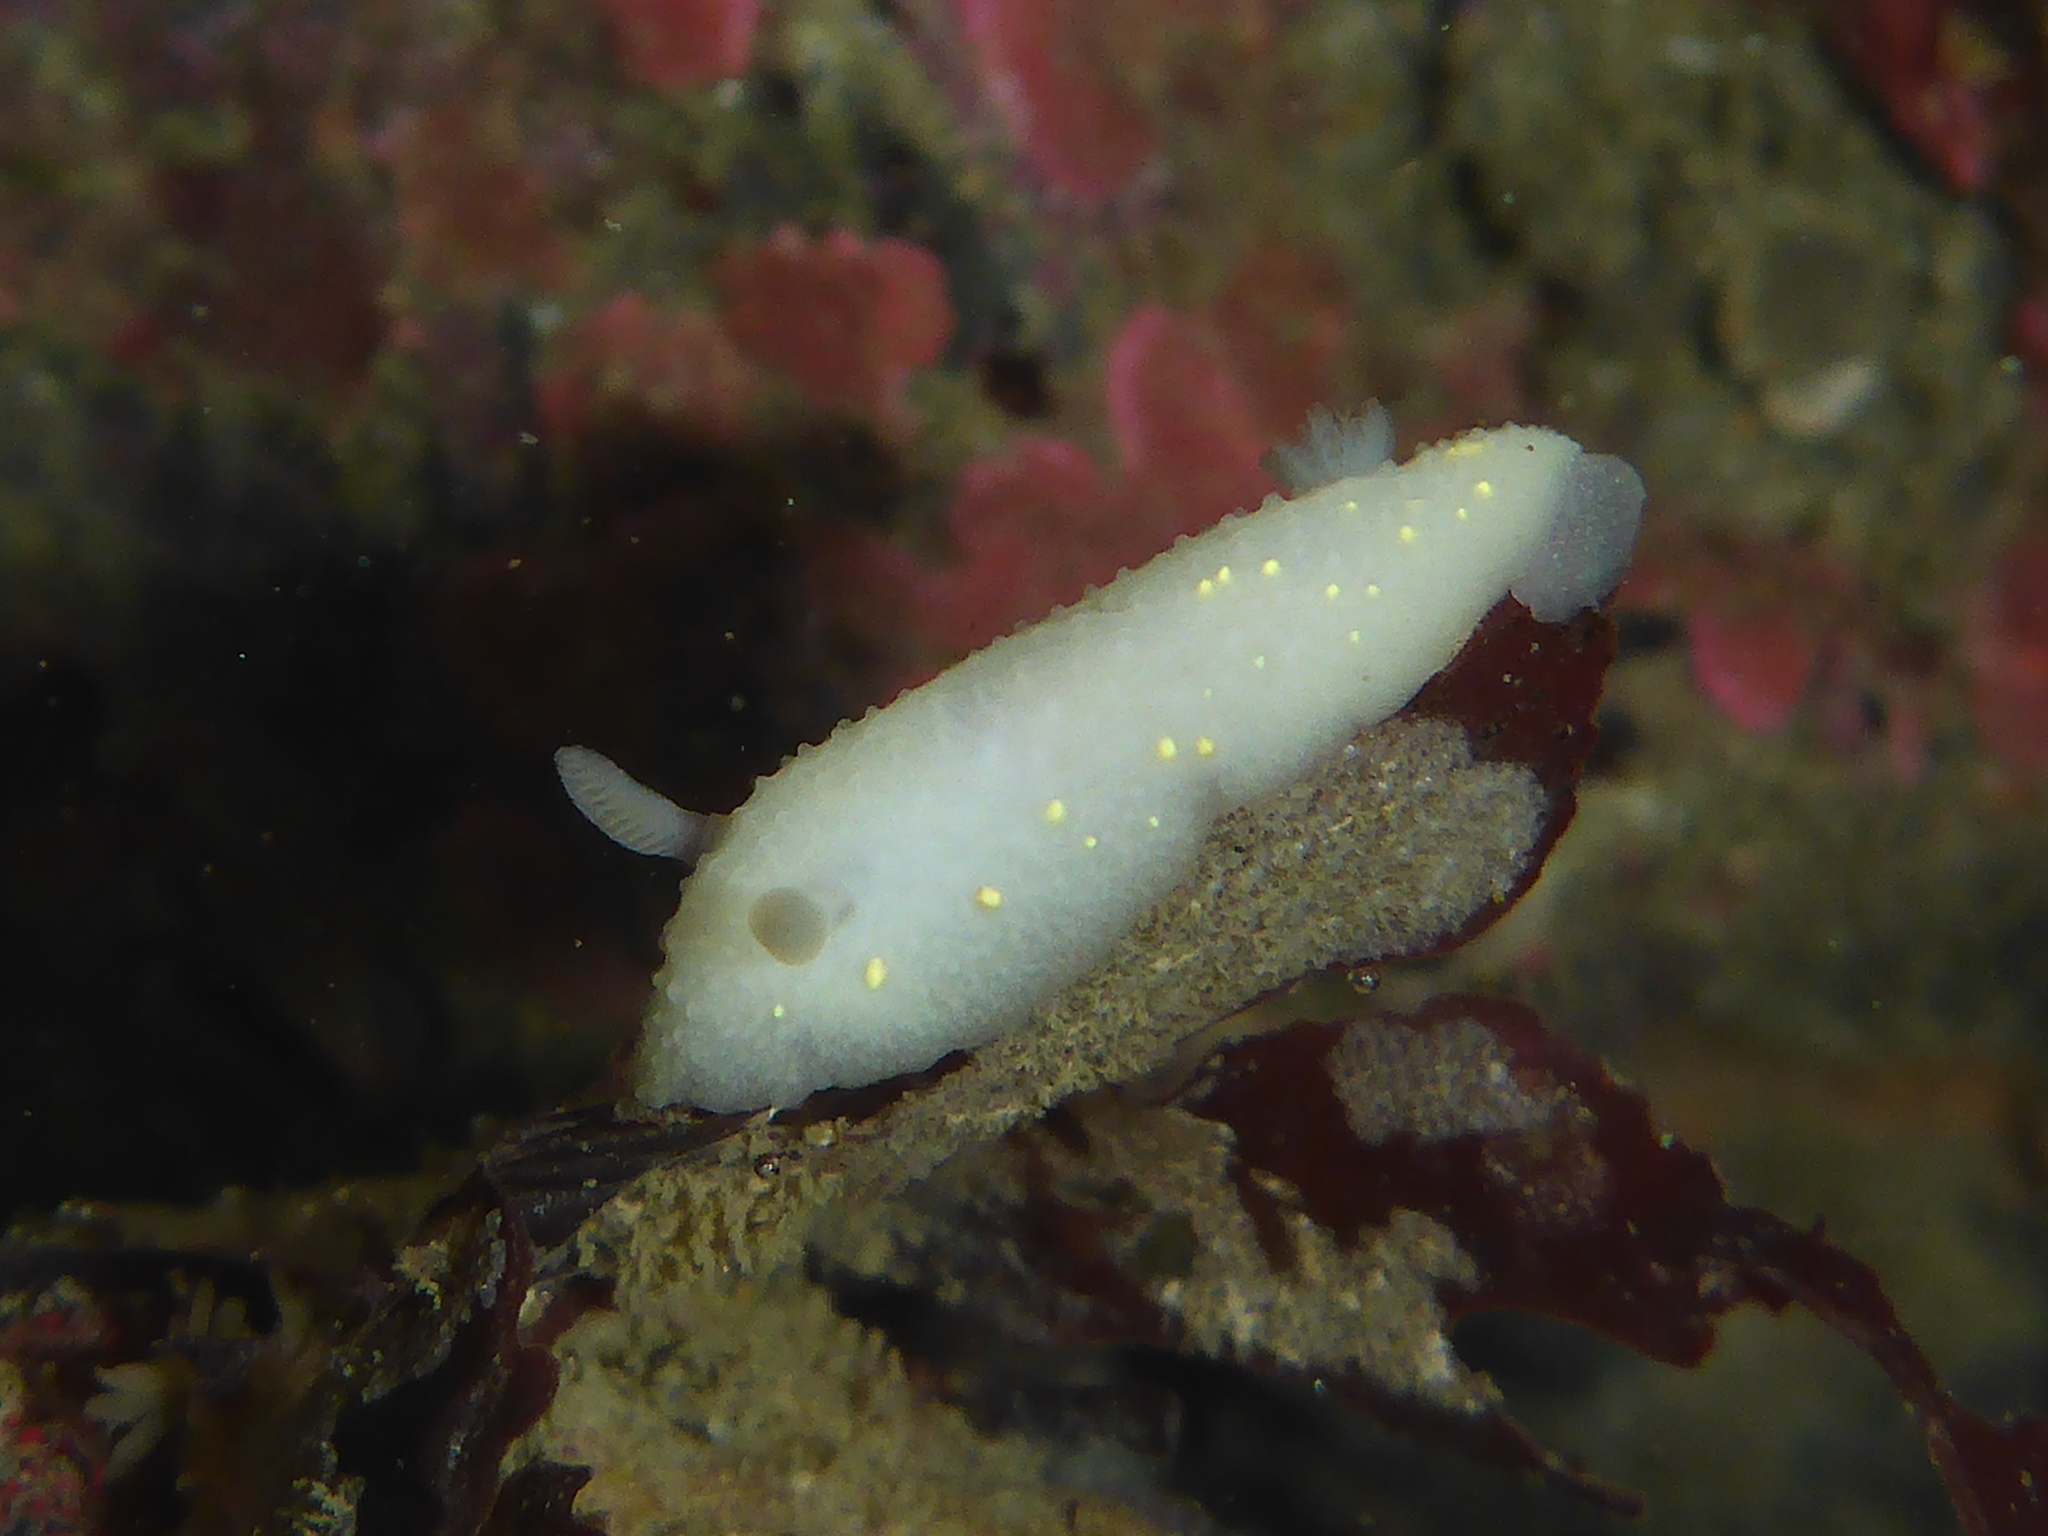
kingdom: Animalia
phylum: Mollusca
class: Gastropoda
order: Nudibranchia
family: Cadlinidae
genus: Cadlina
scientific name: Cadlina modesta
